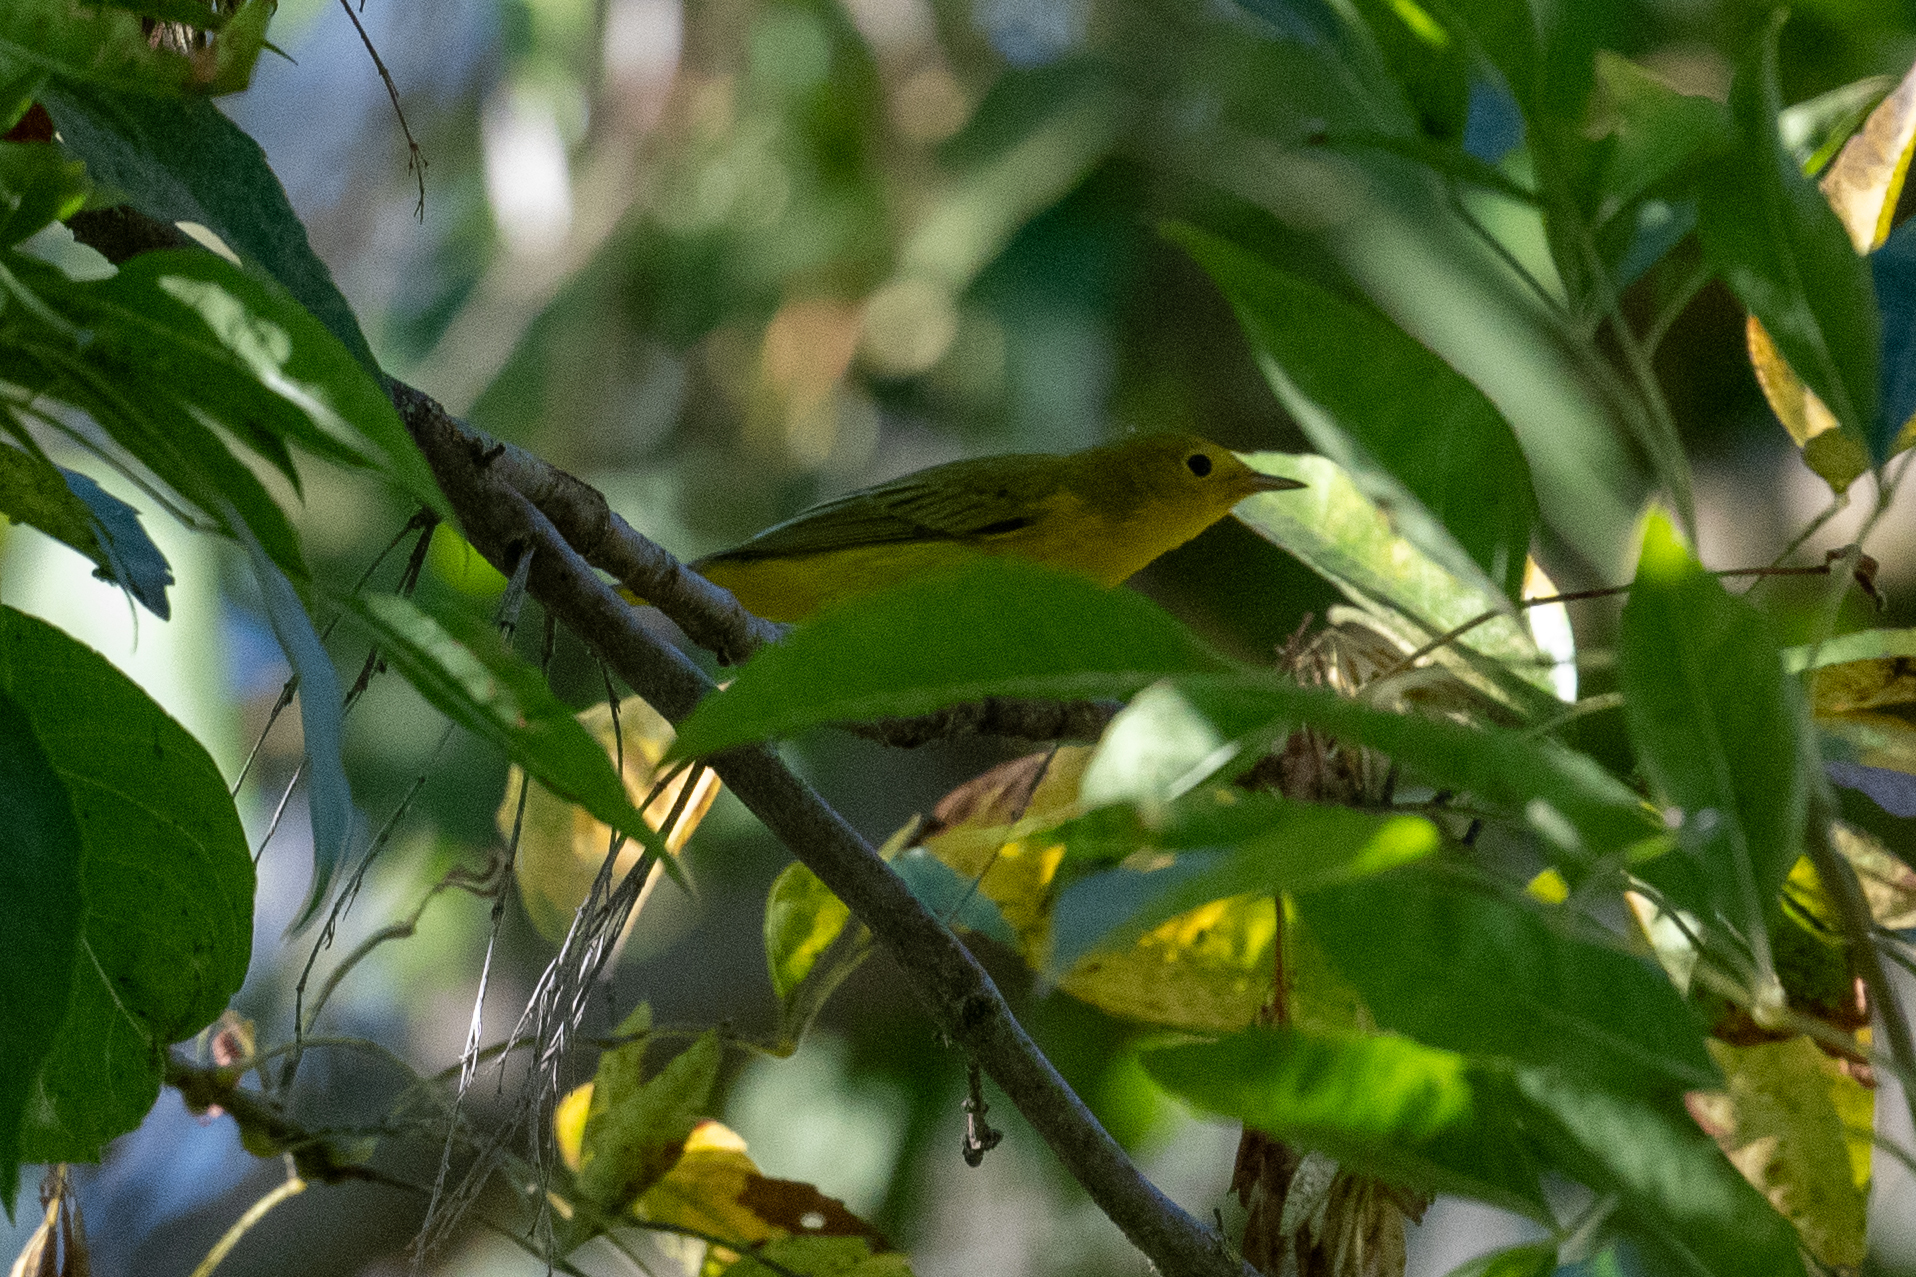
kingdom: Animalia
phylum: Chordata
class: Aves
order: Passeriformes
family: Parulidae
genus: Setophaga
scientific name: Setophaga petechia
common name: Yellow warbler
